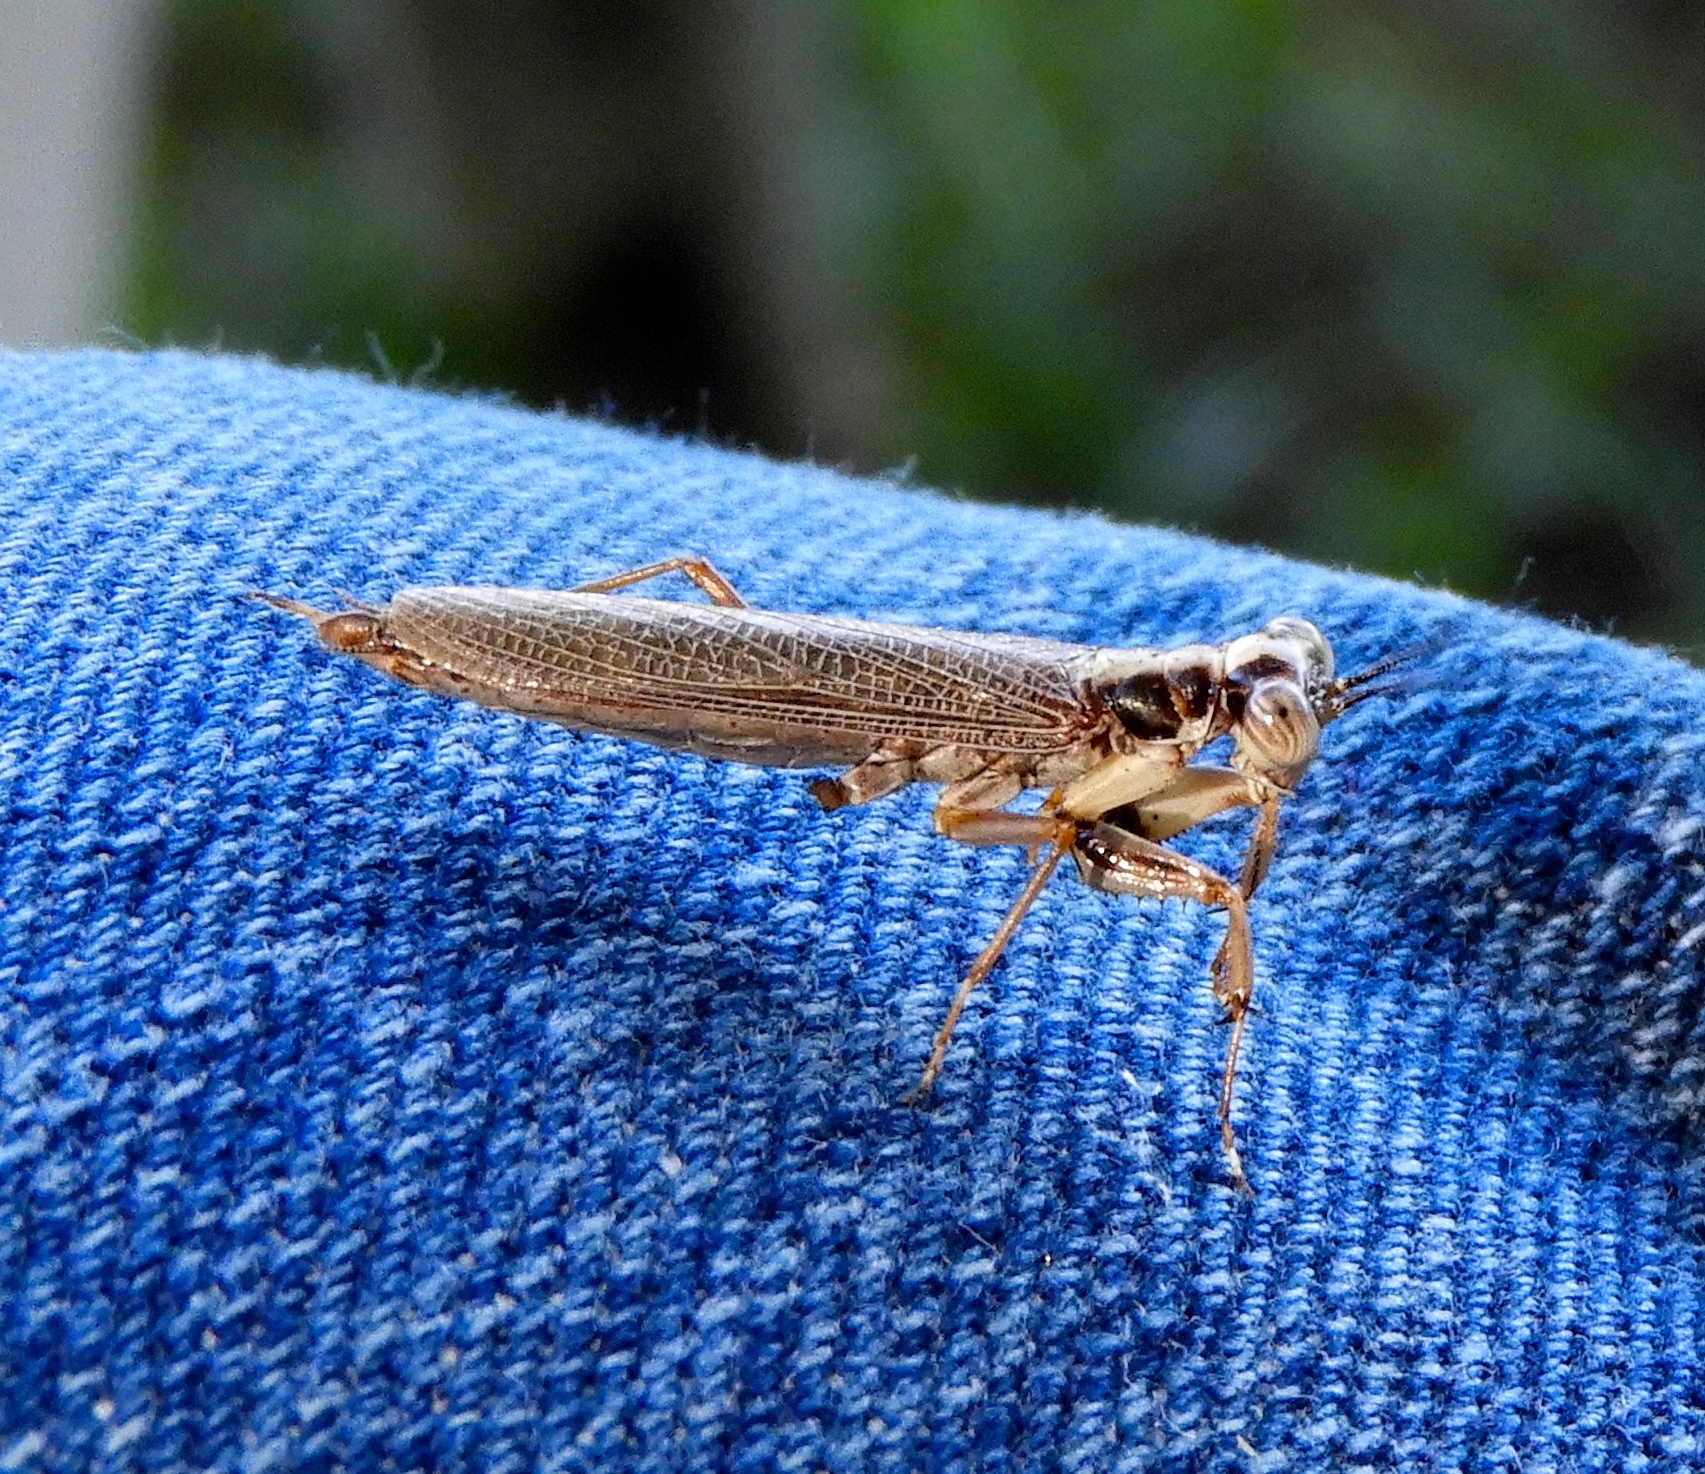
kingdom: Animalia
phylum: Arthropoda
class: Insecta
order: Mantodea
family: Mantoididae
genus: Mantoida
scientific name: Mantoida maya
